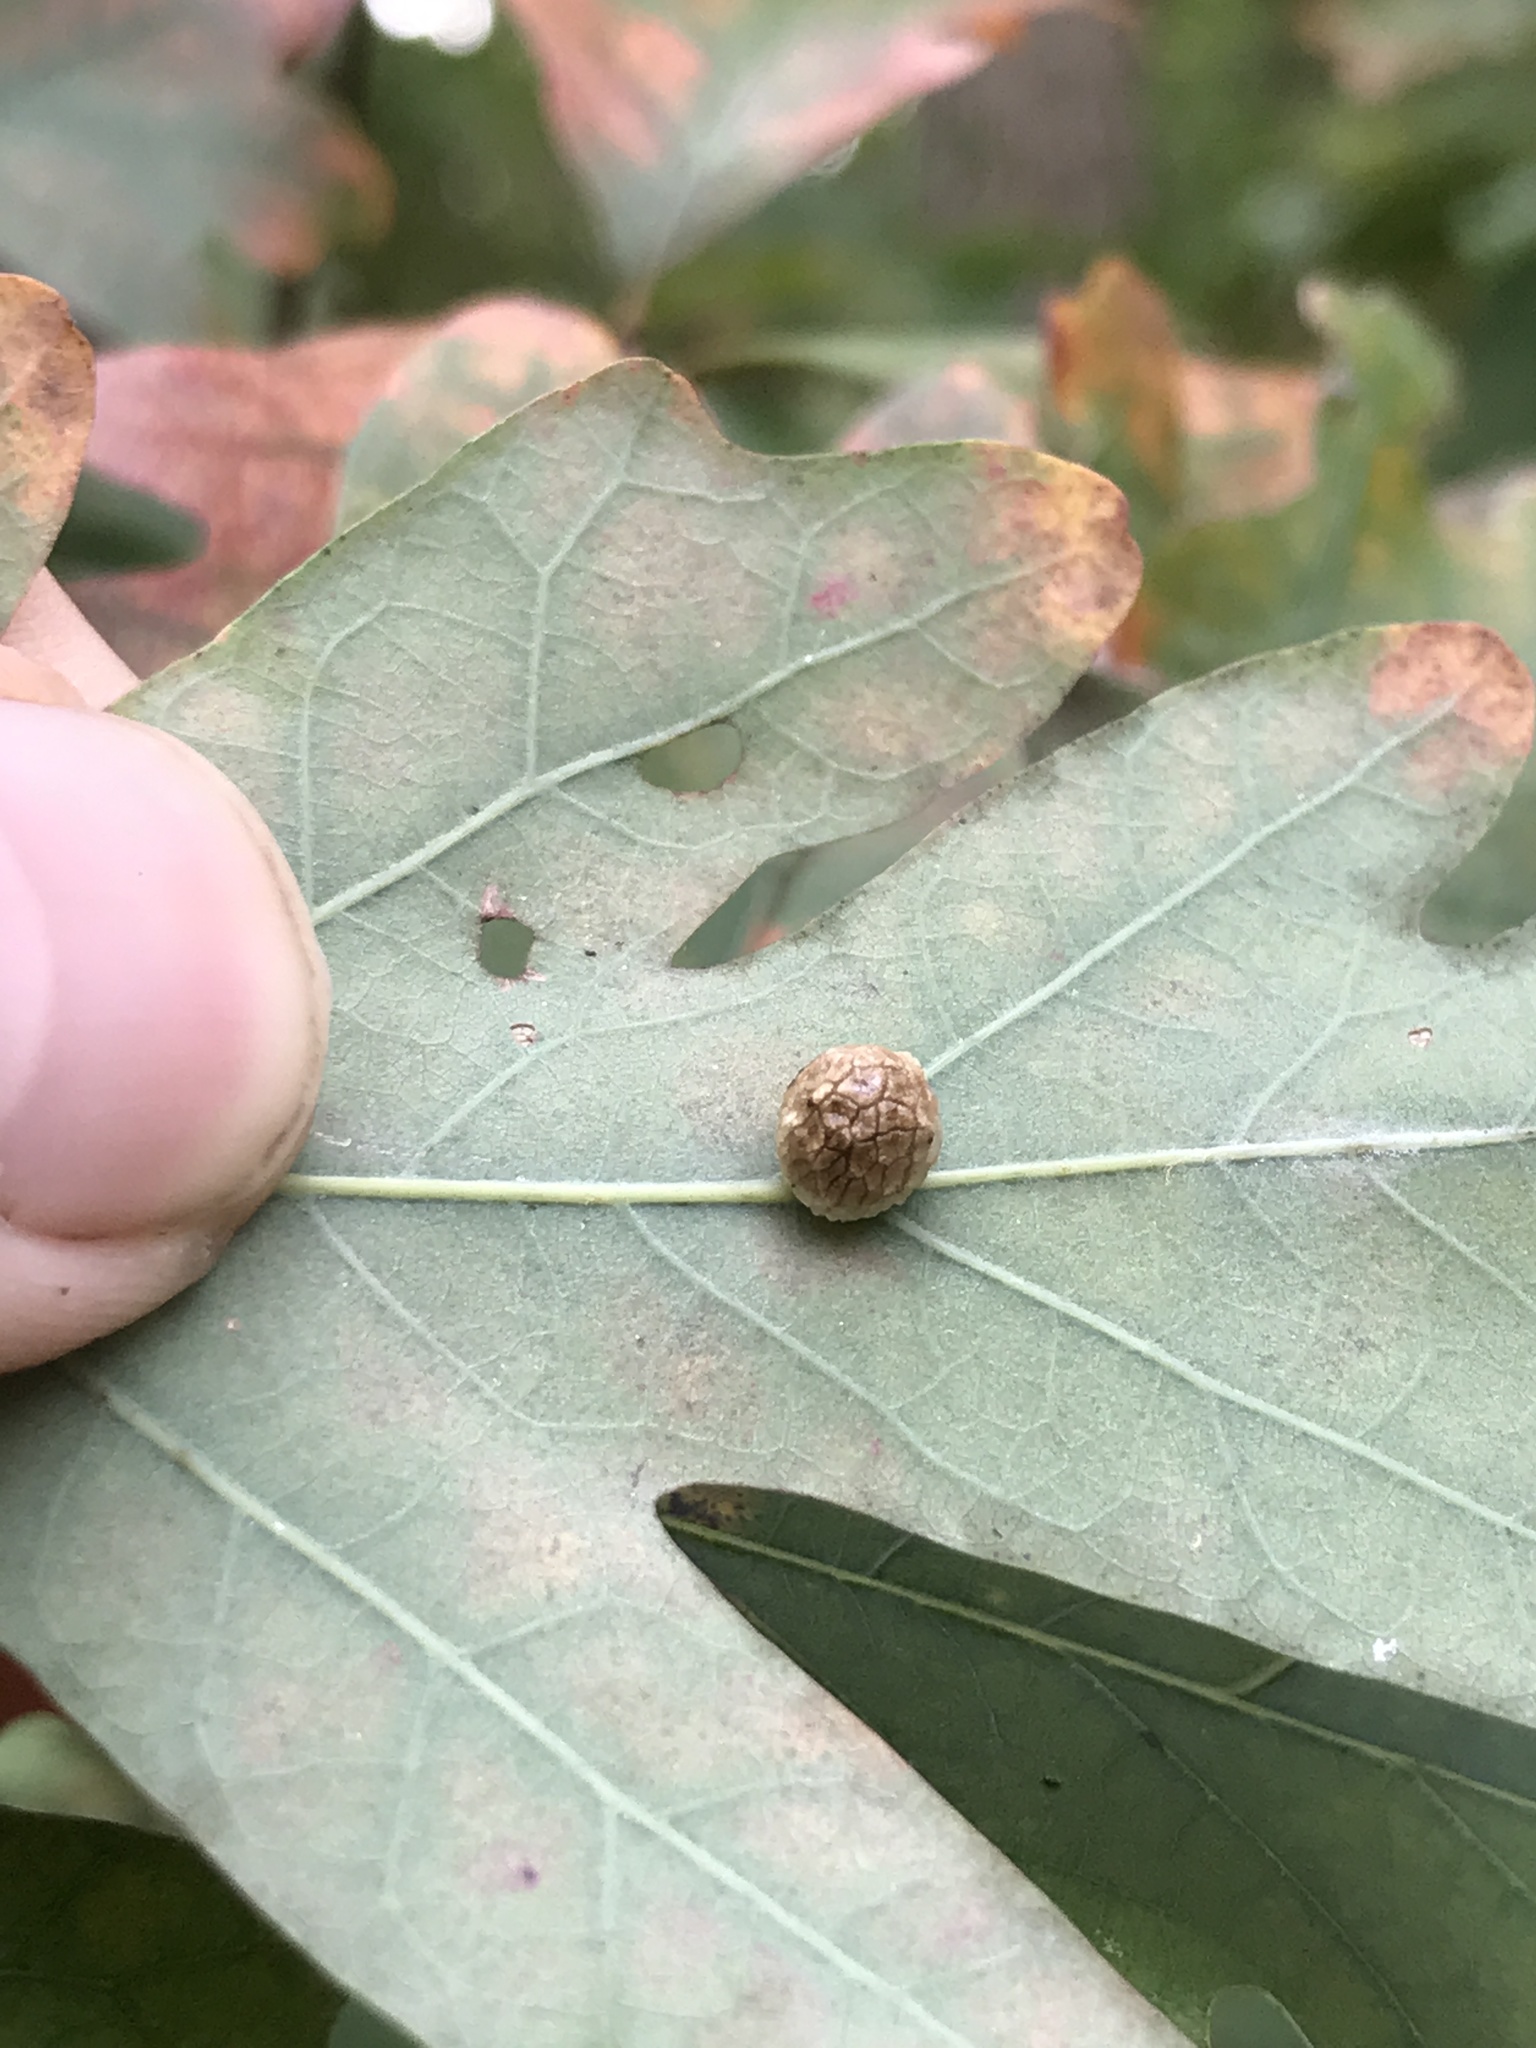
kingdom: Animalia
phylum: Arthropoda
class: Insecta
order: Hymenoptera
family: Cynipidae
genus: Acraspis
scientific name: Acraspis
